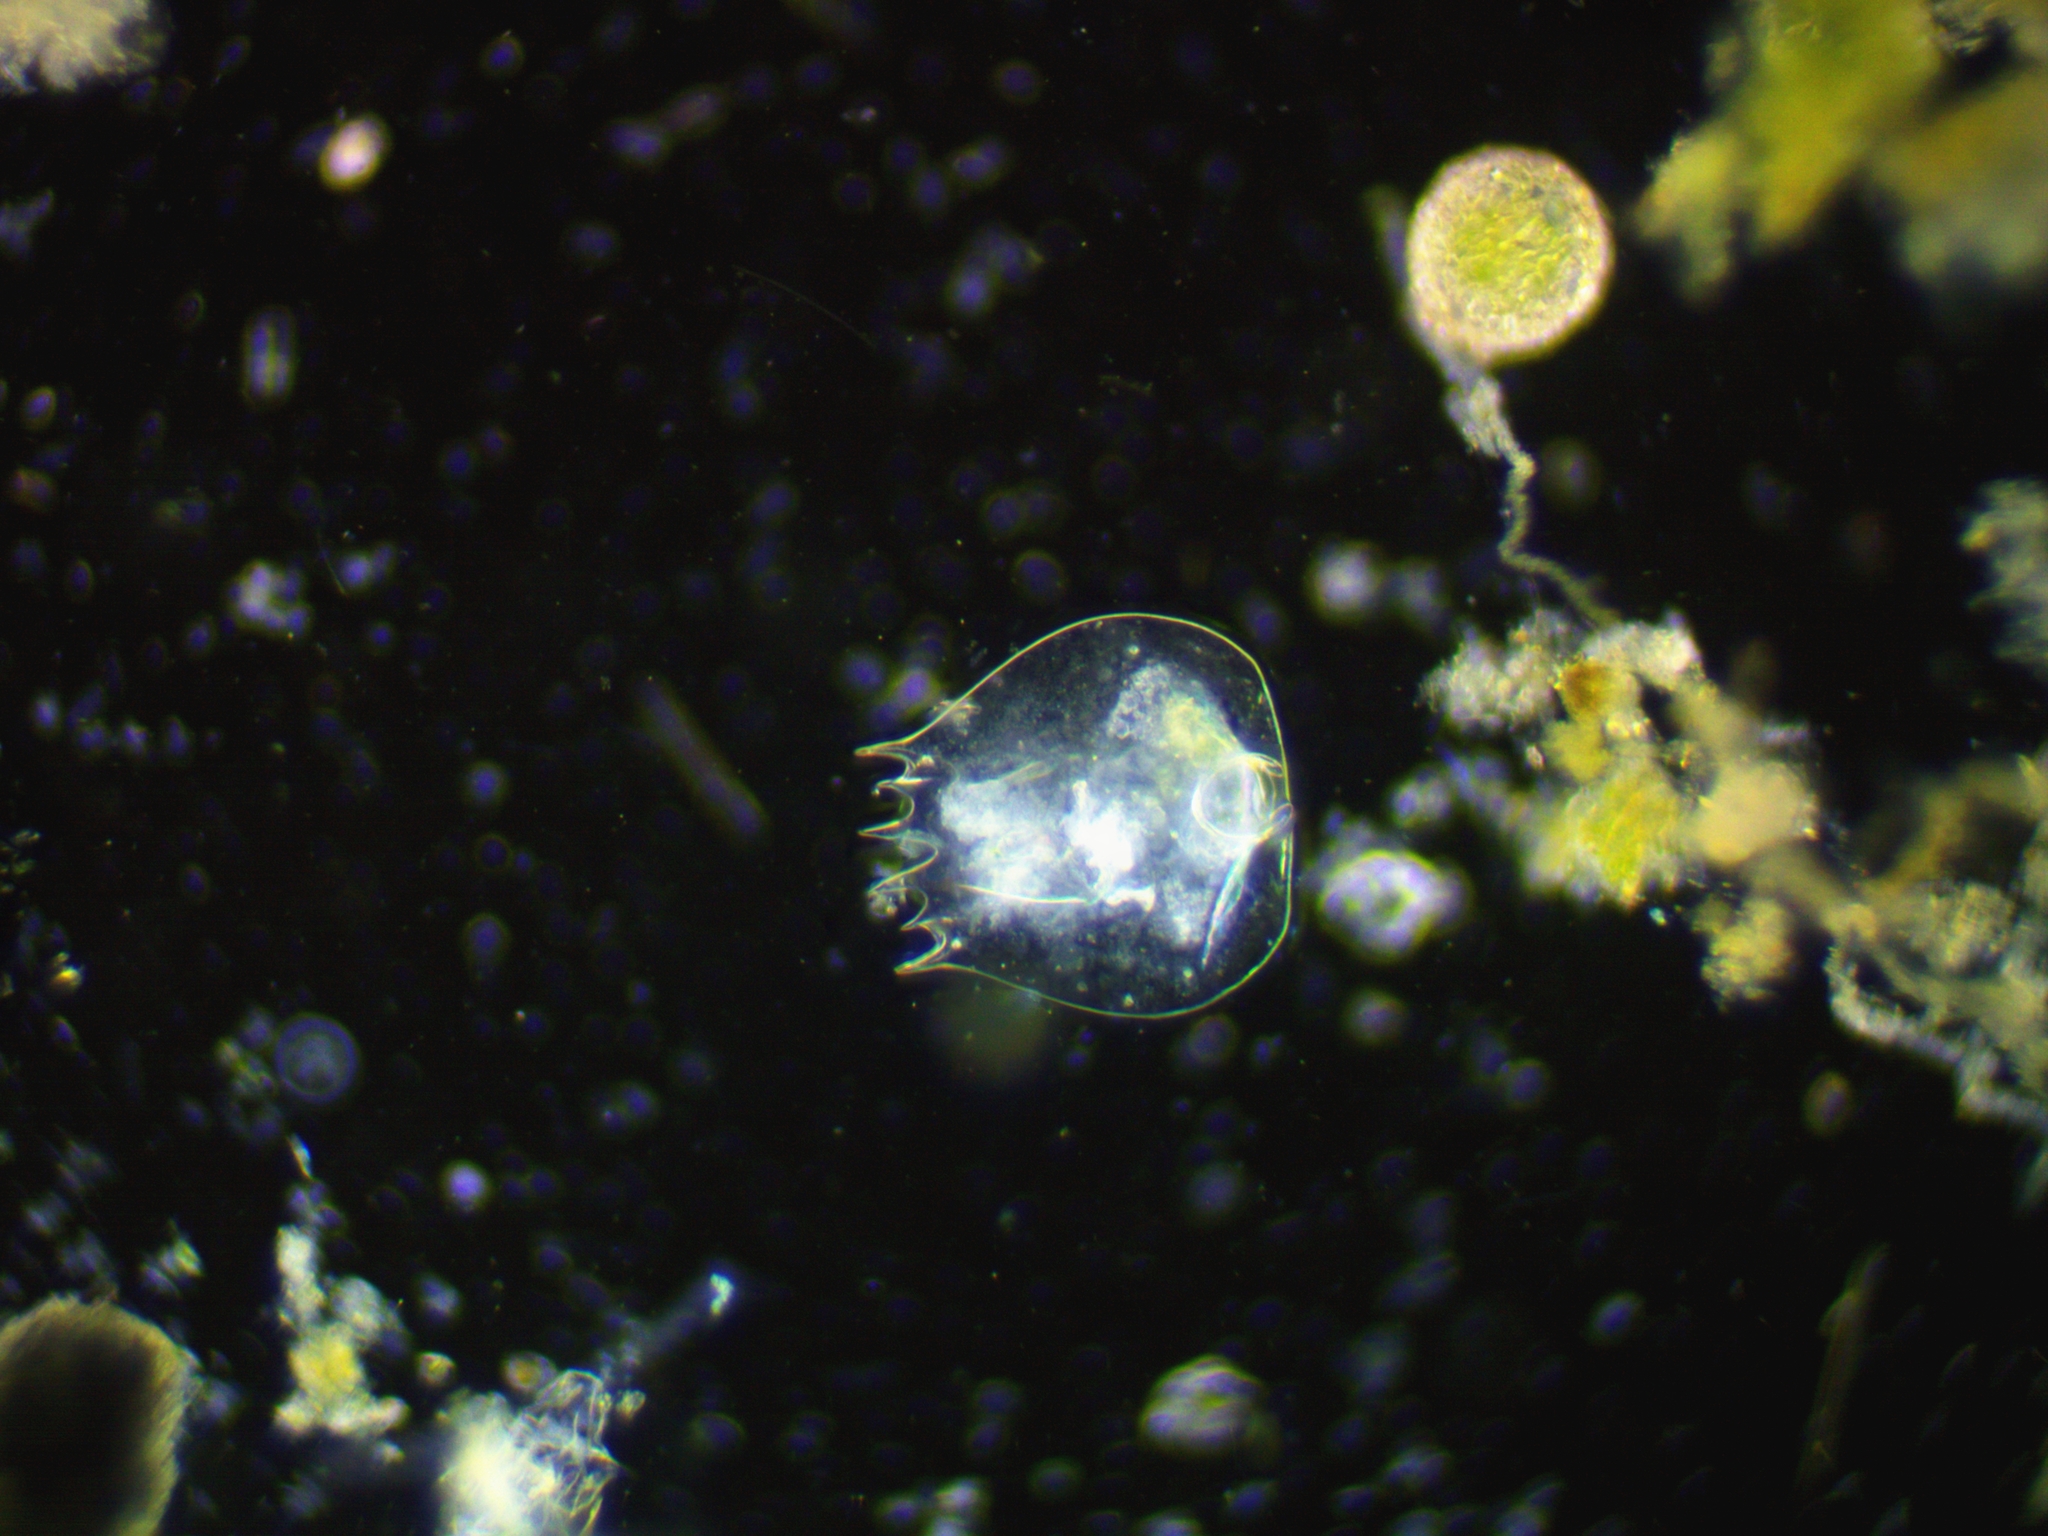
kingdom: Animalia
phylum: Rotifera
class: Eurotatoria
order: Ploima
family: Brachionidae
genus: Brachionus
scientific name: Brachionus quadridentatus
